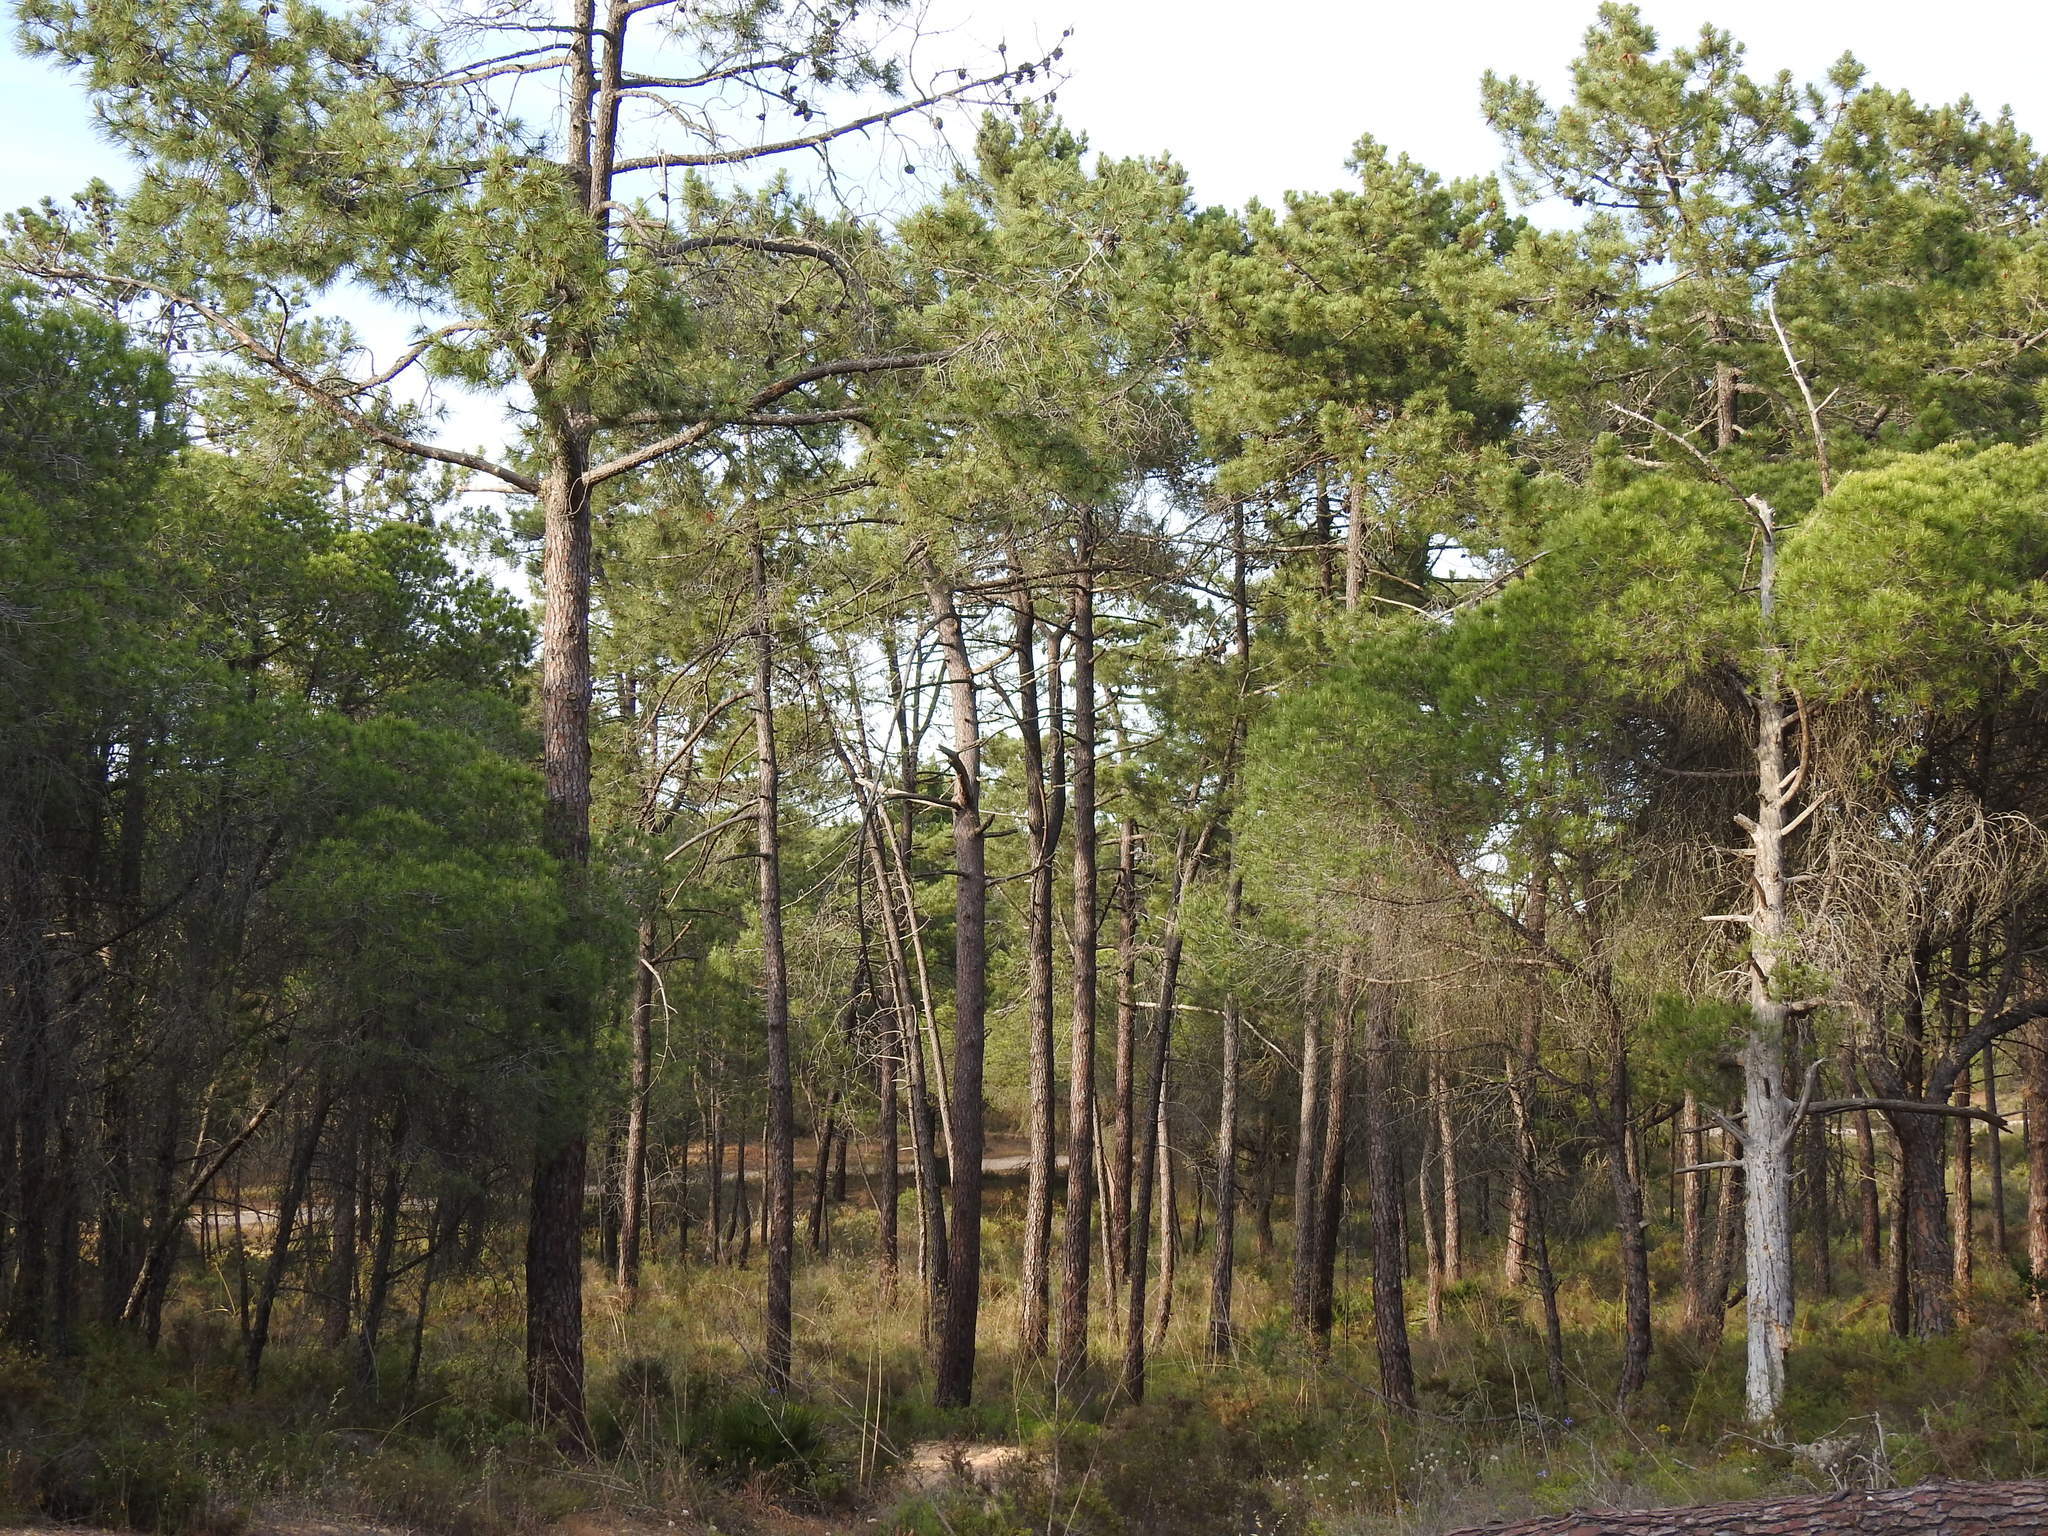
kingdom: Plantae
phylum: Tracheophyta
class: Pinopsida
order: Pinales
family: Pinaceae
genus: Pinus
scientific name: Pinus pinaster
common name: Maritime pine
